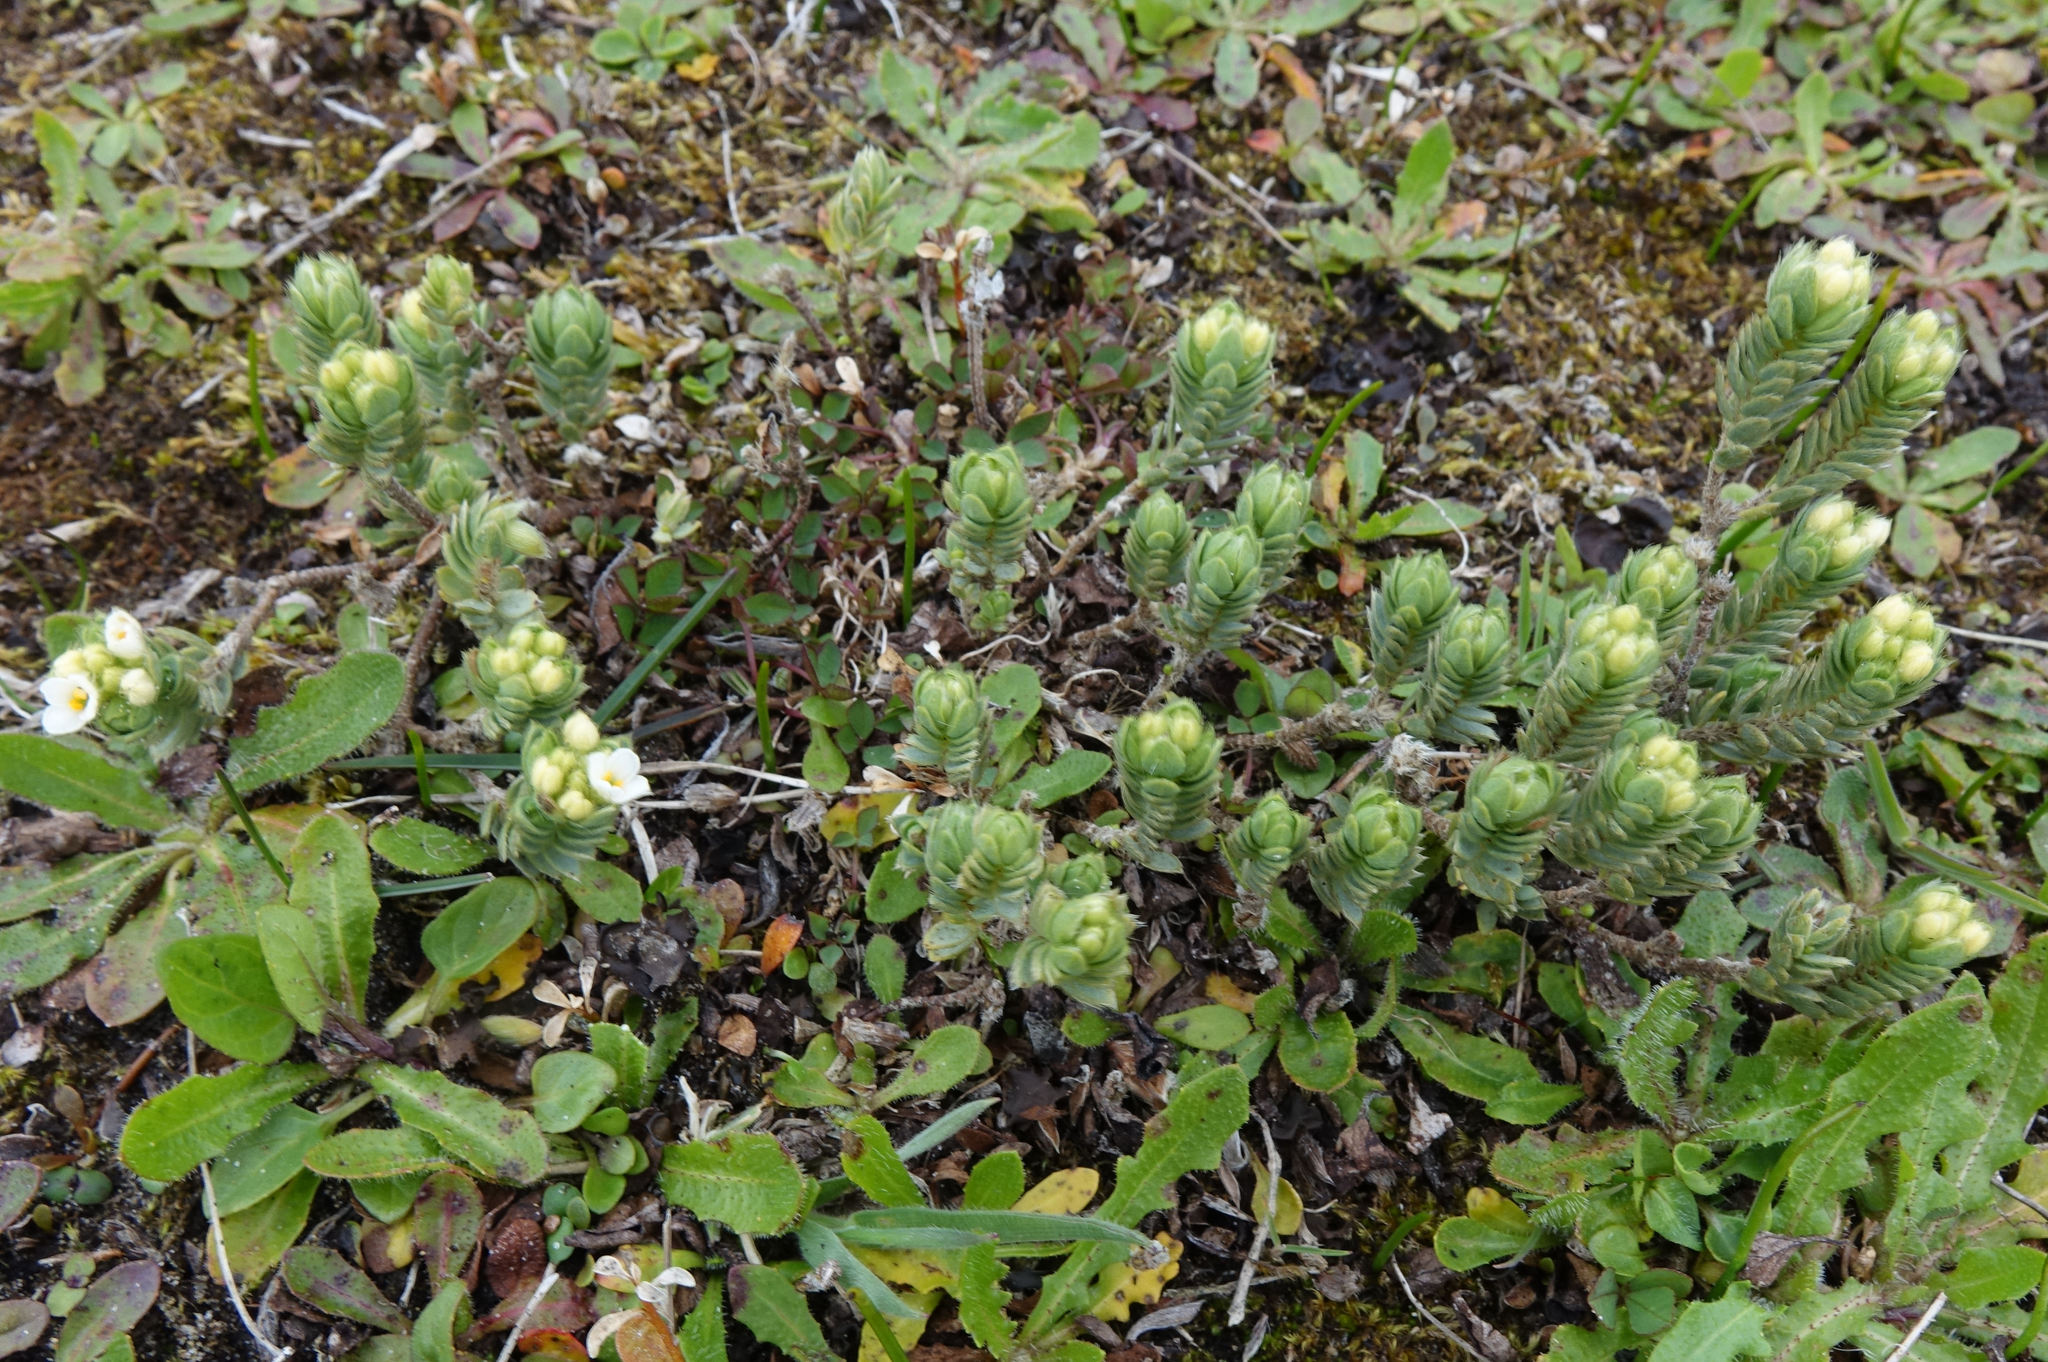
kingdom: Plantae
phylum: Tracheophyta
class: Magnoliopsida
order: Malvales
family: Thymelaeaceae
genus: Pimelea
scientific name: Pimelea lyallii
